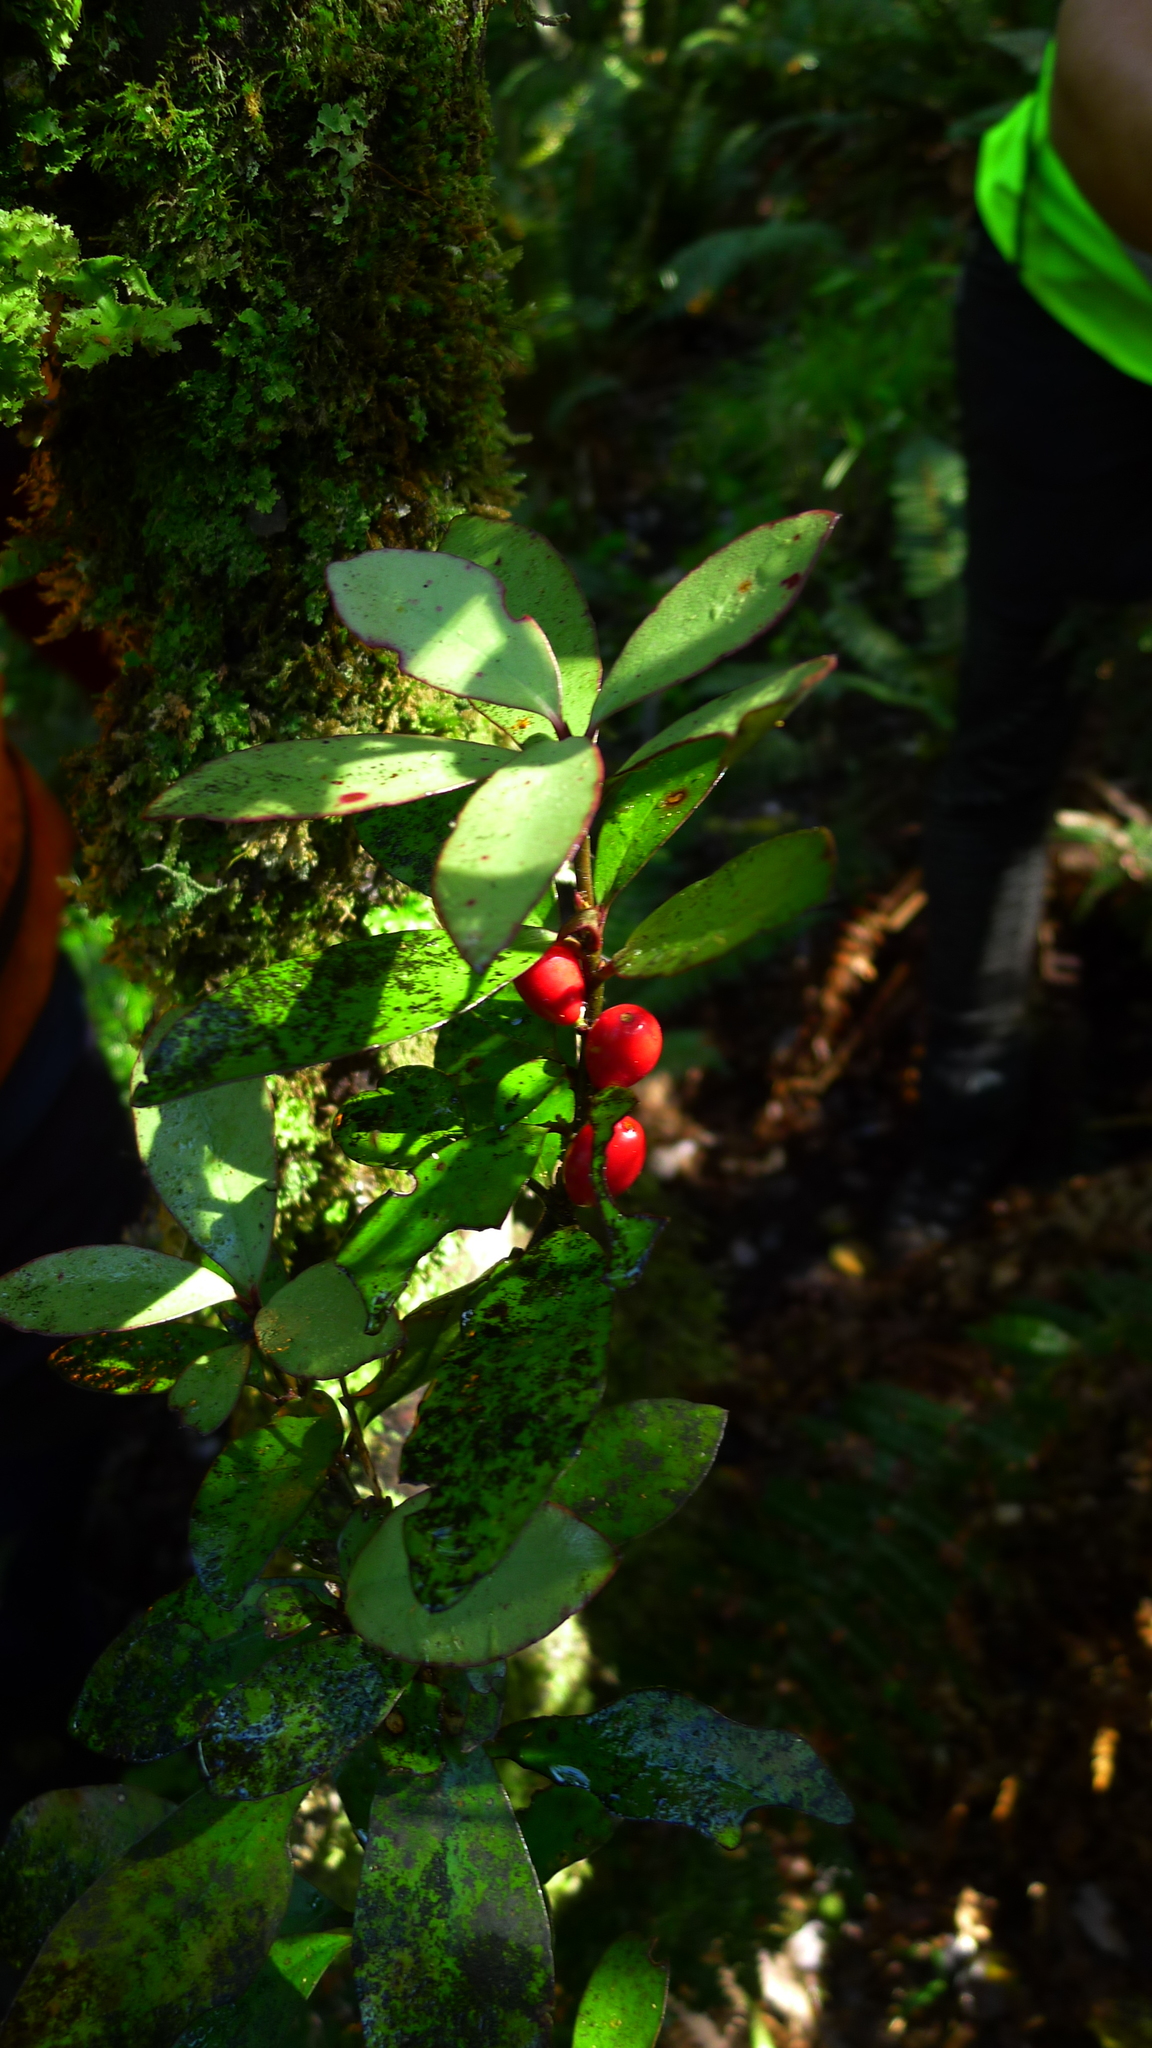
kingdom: Plantae
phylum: Tracheophyta
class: Magnoliopsida
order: Asterales
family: Alseuosmiaceae
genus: Alseuosmia
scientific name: Alseuosmia pusilla
